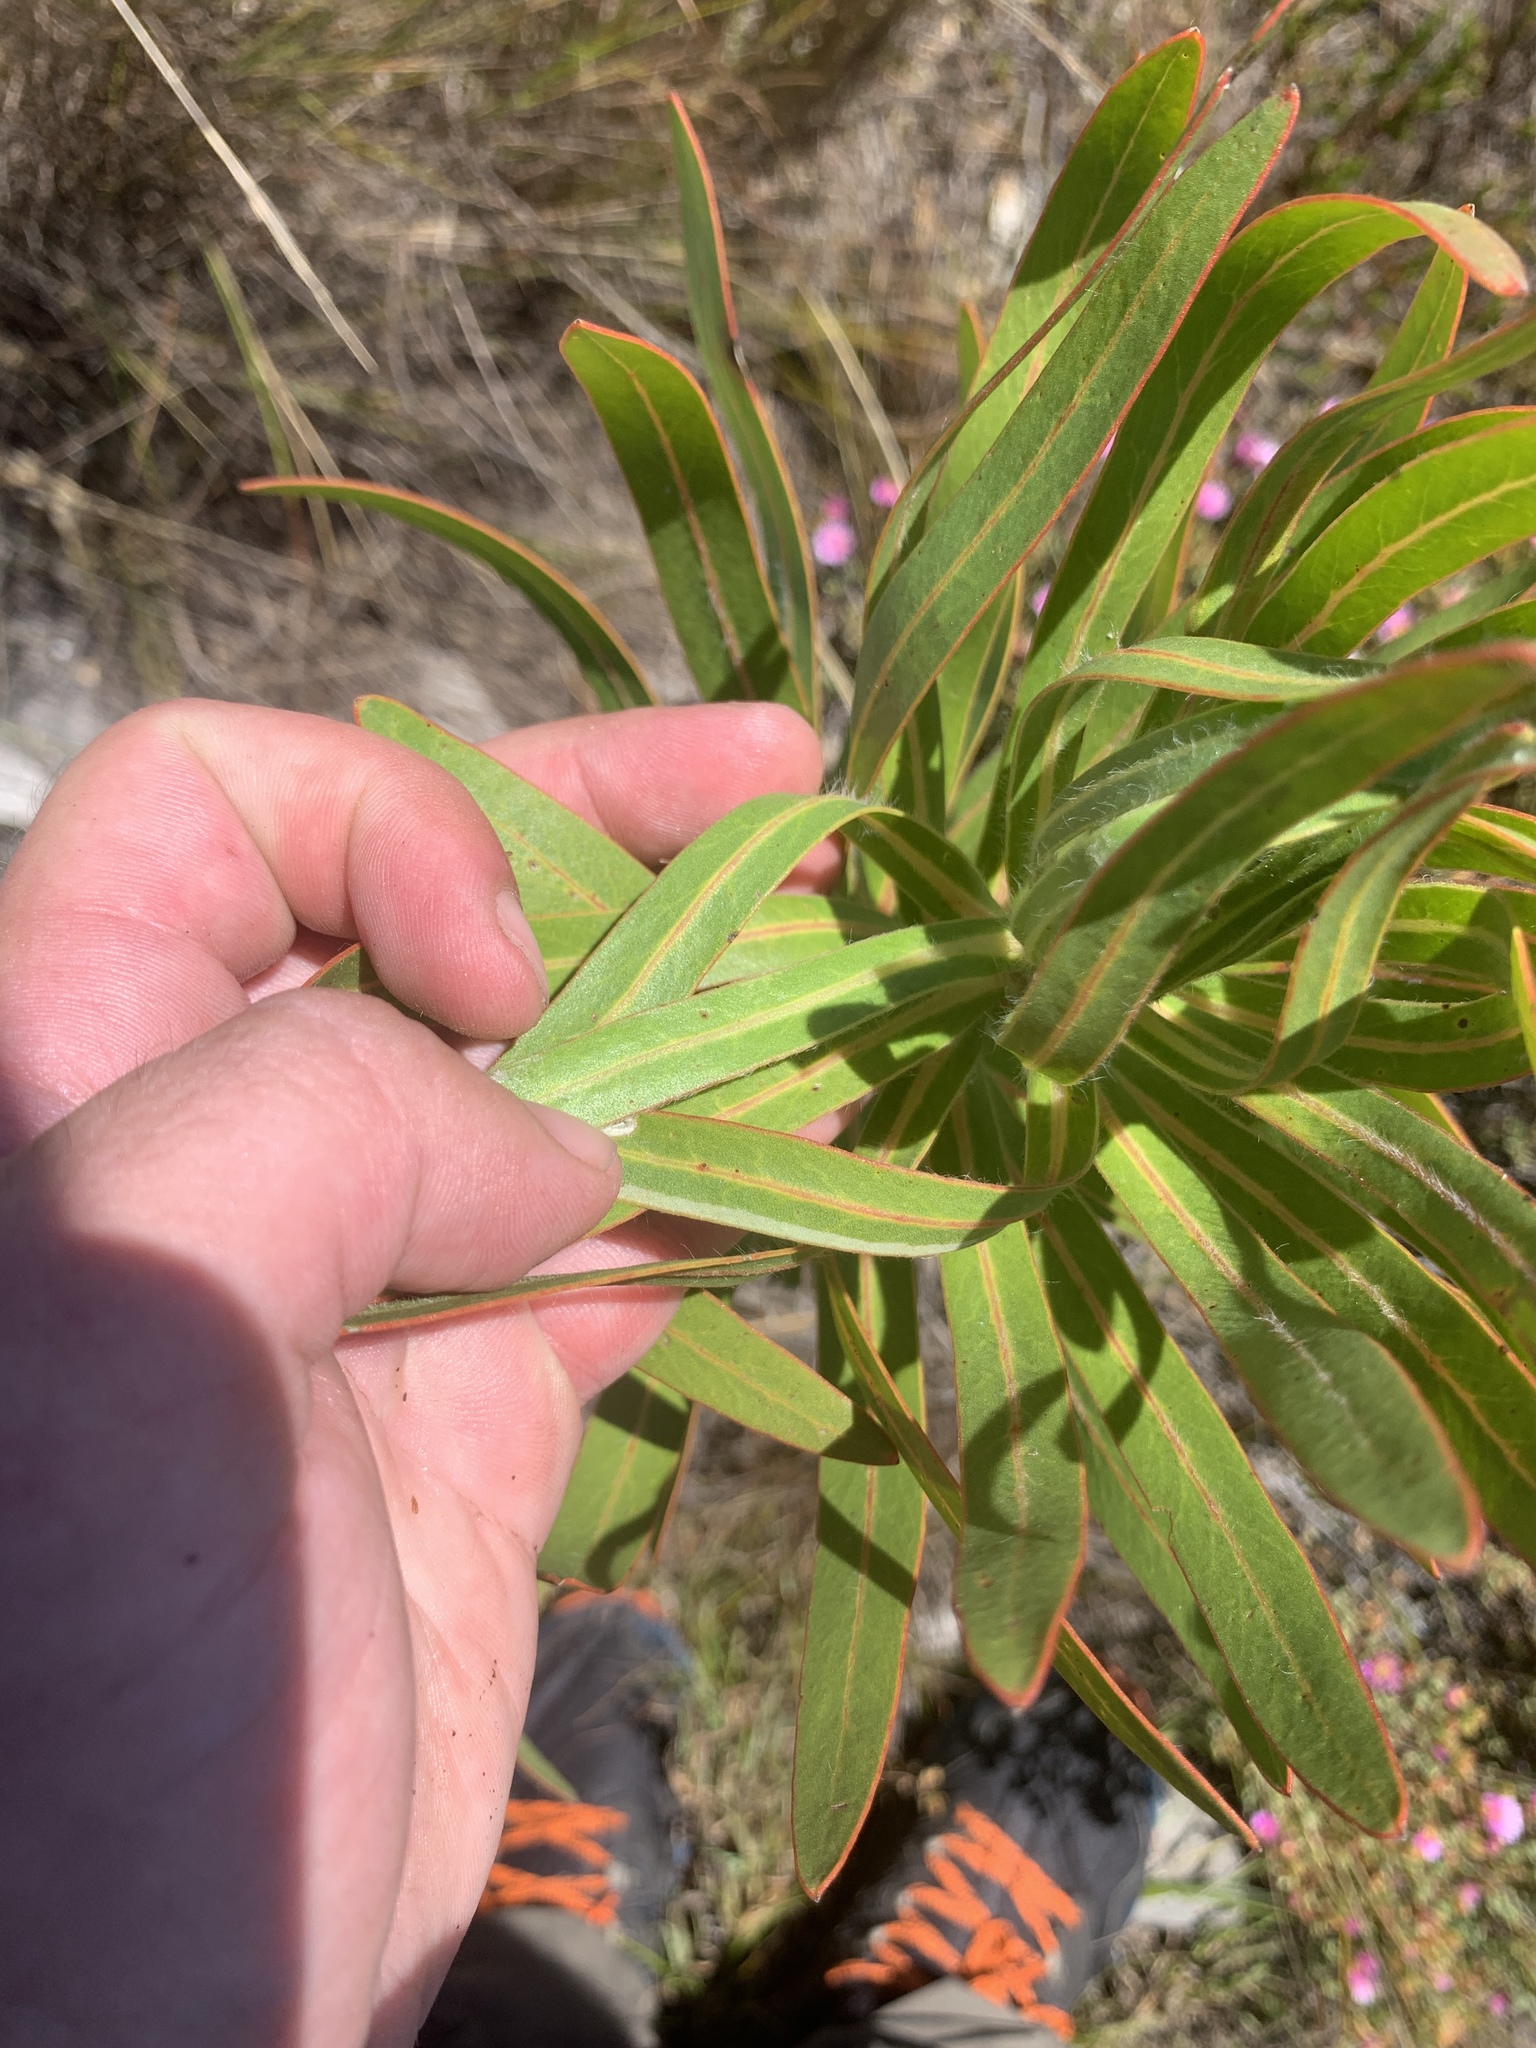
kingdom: Plantae
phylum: Tracheophyta
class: Magnoliopsida
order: Proteales
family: Proteaceae
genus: Protea
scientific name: Protea longifolia
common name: Long-leaf sugarbush
